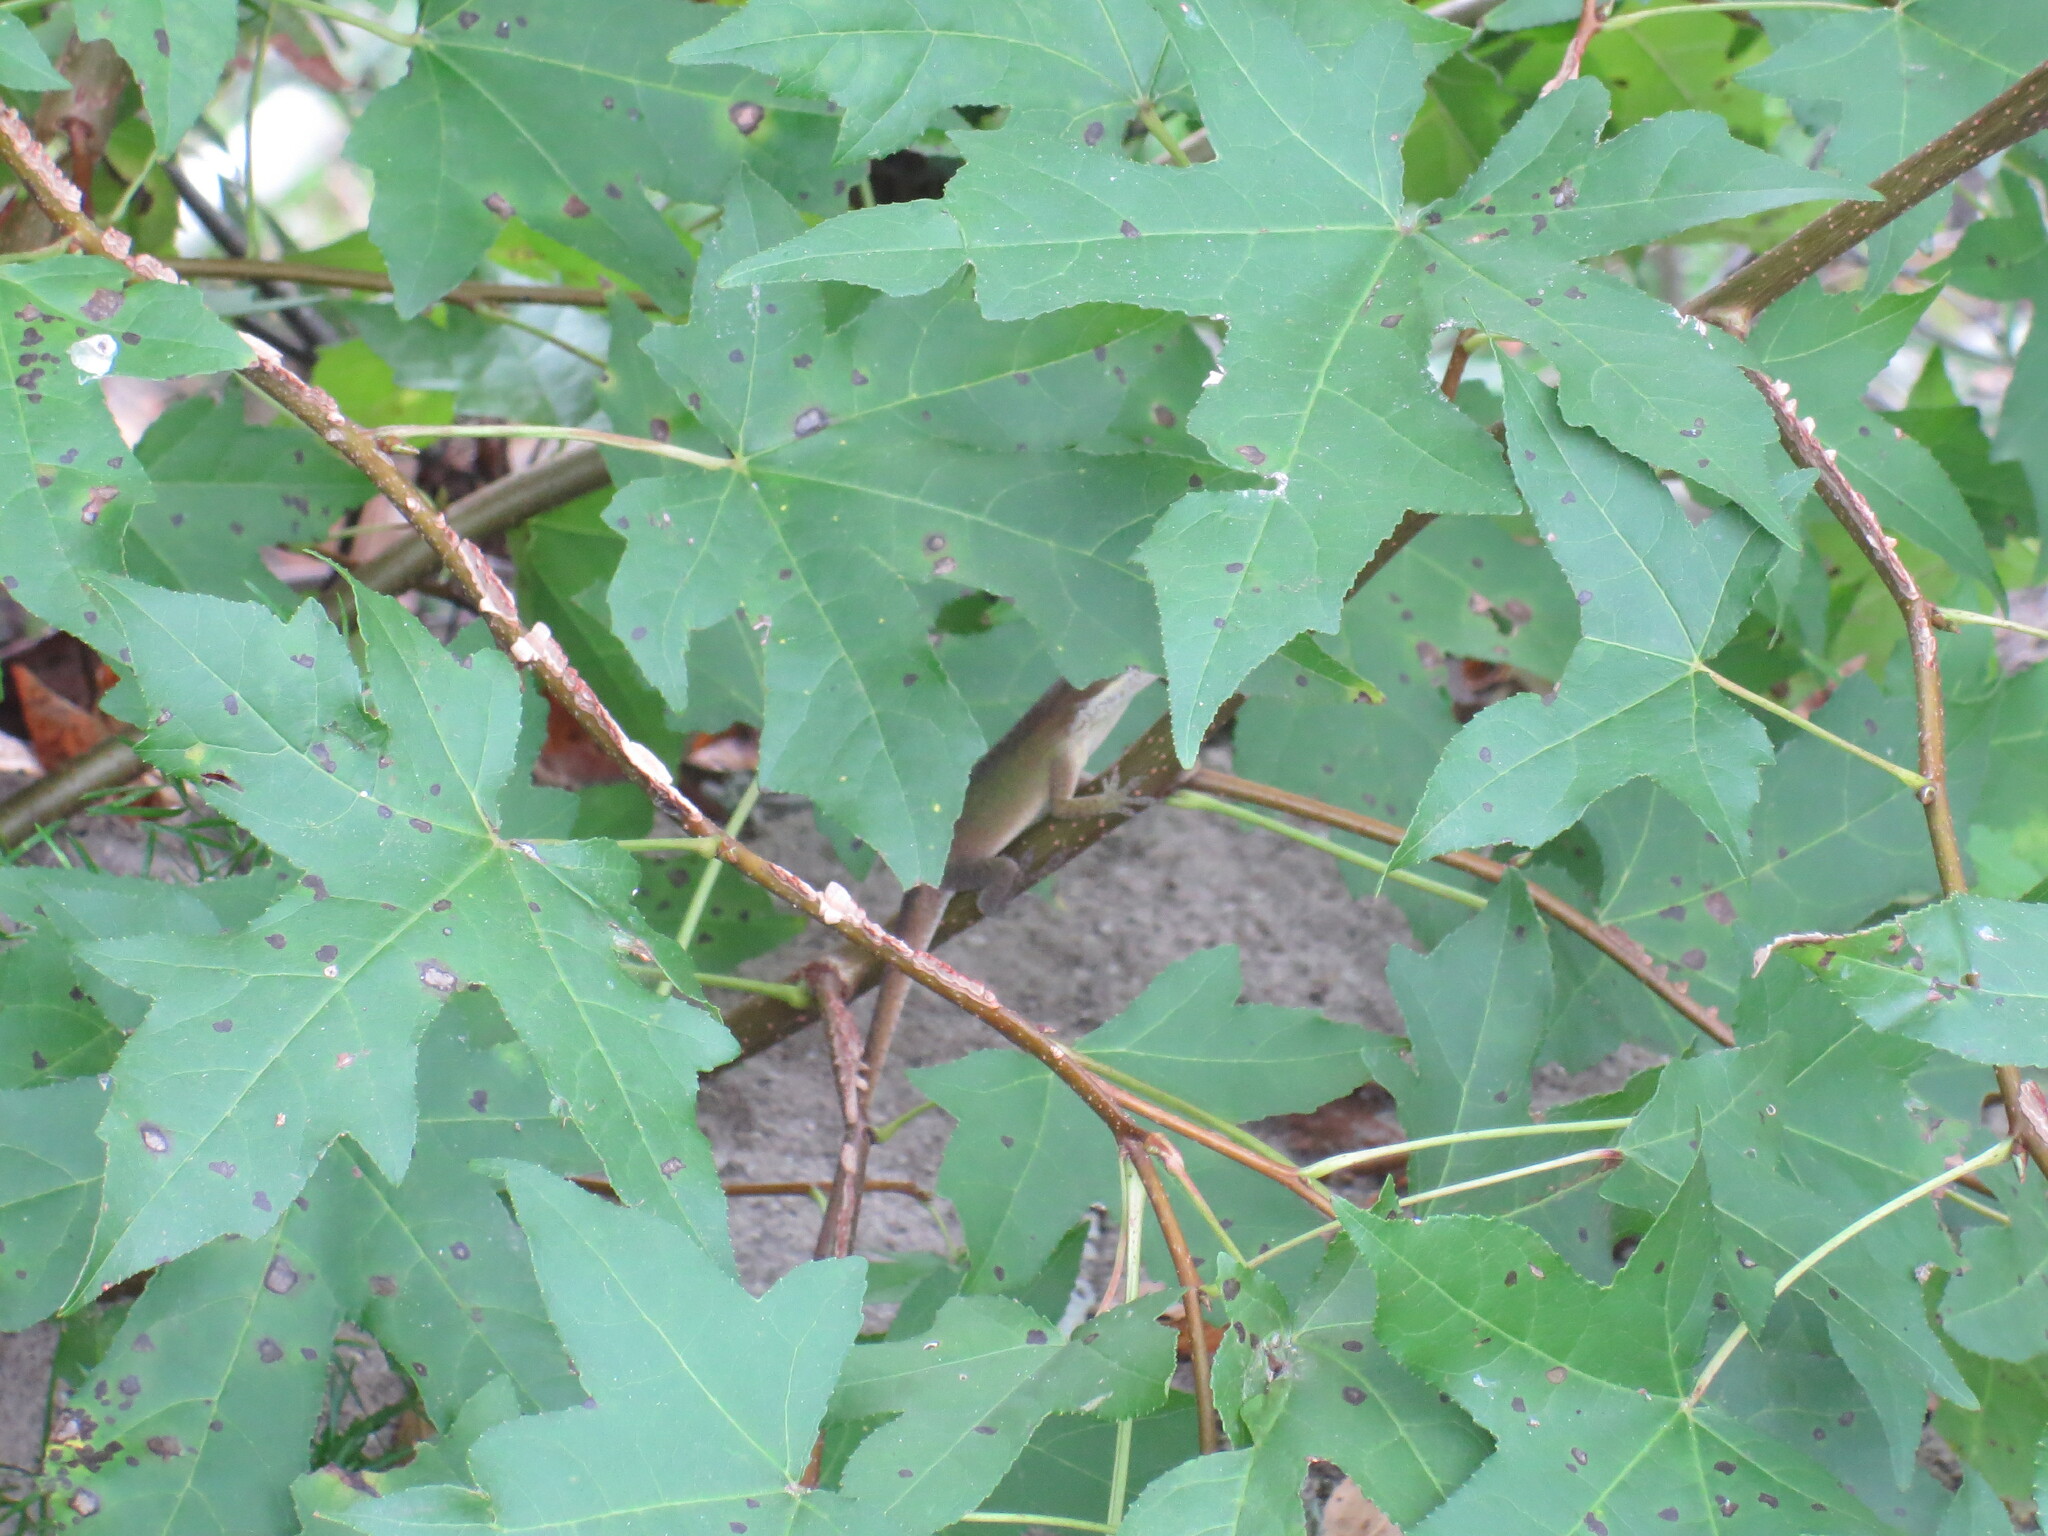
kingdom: Animalia
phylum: Chordata
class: Squamata
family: Dactyloidae
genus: Anolis
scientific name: Anolis carolinensis
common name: Green anole
